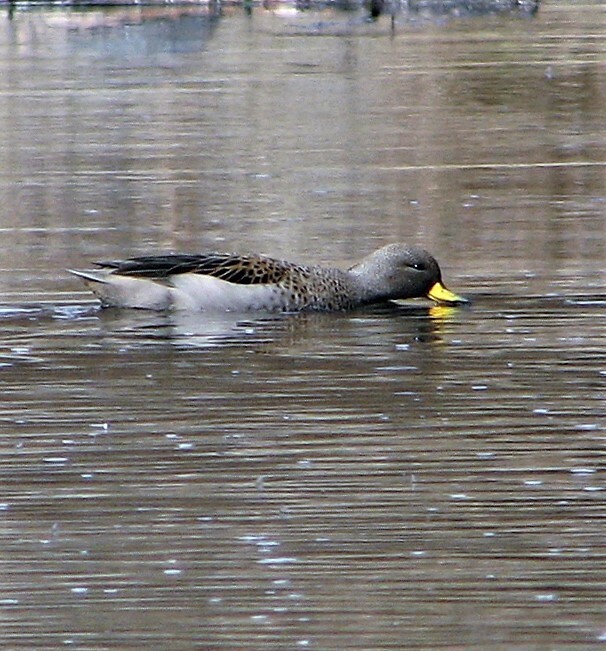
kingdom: Animalia
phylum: Chordata
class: Aves
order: Anseriformes
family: Anatidae
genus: Anas
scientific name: Anas flavirostris
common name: Yellow-billed teal
